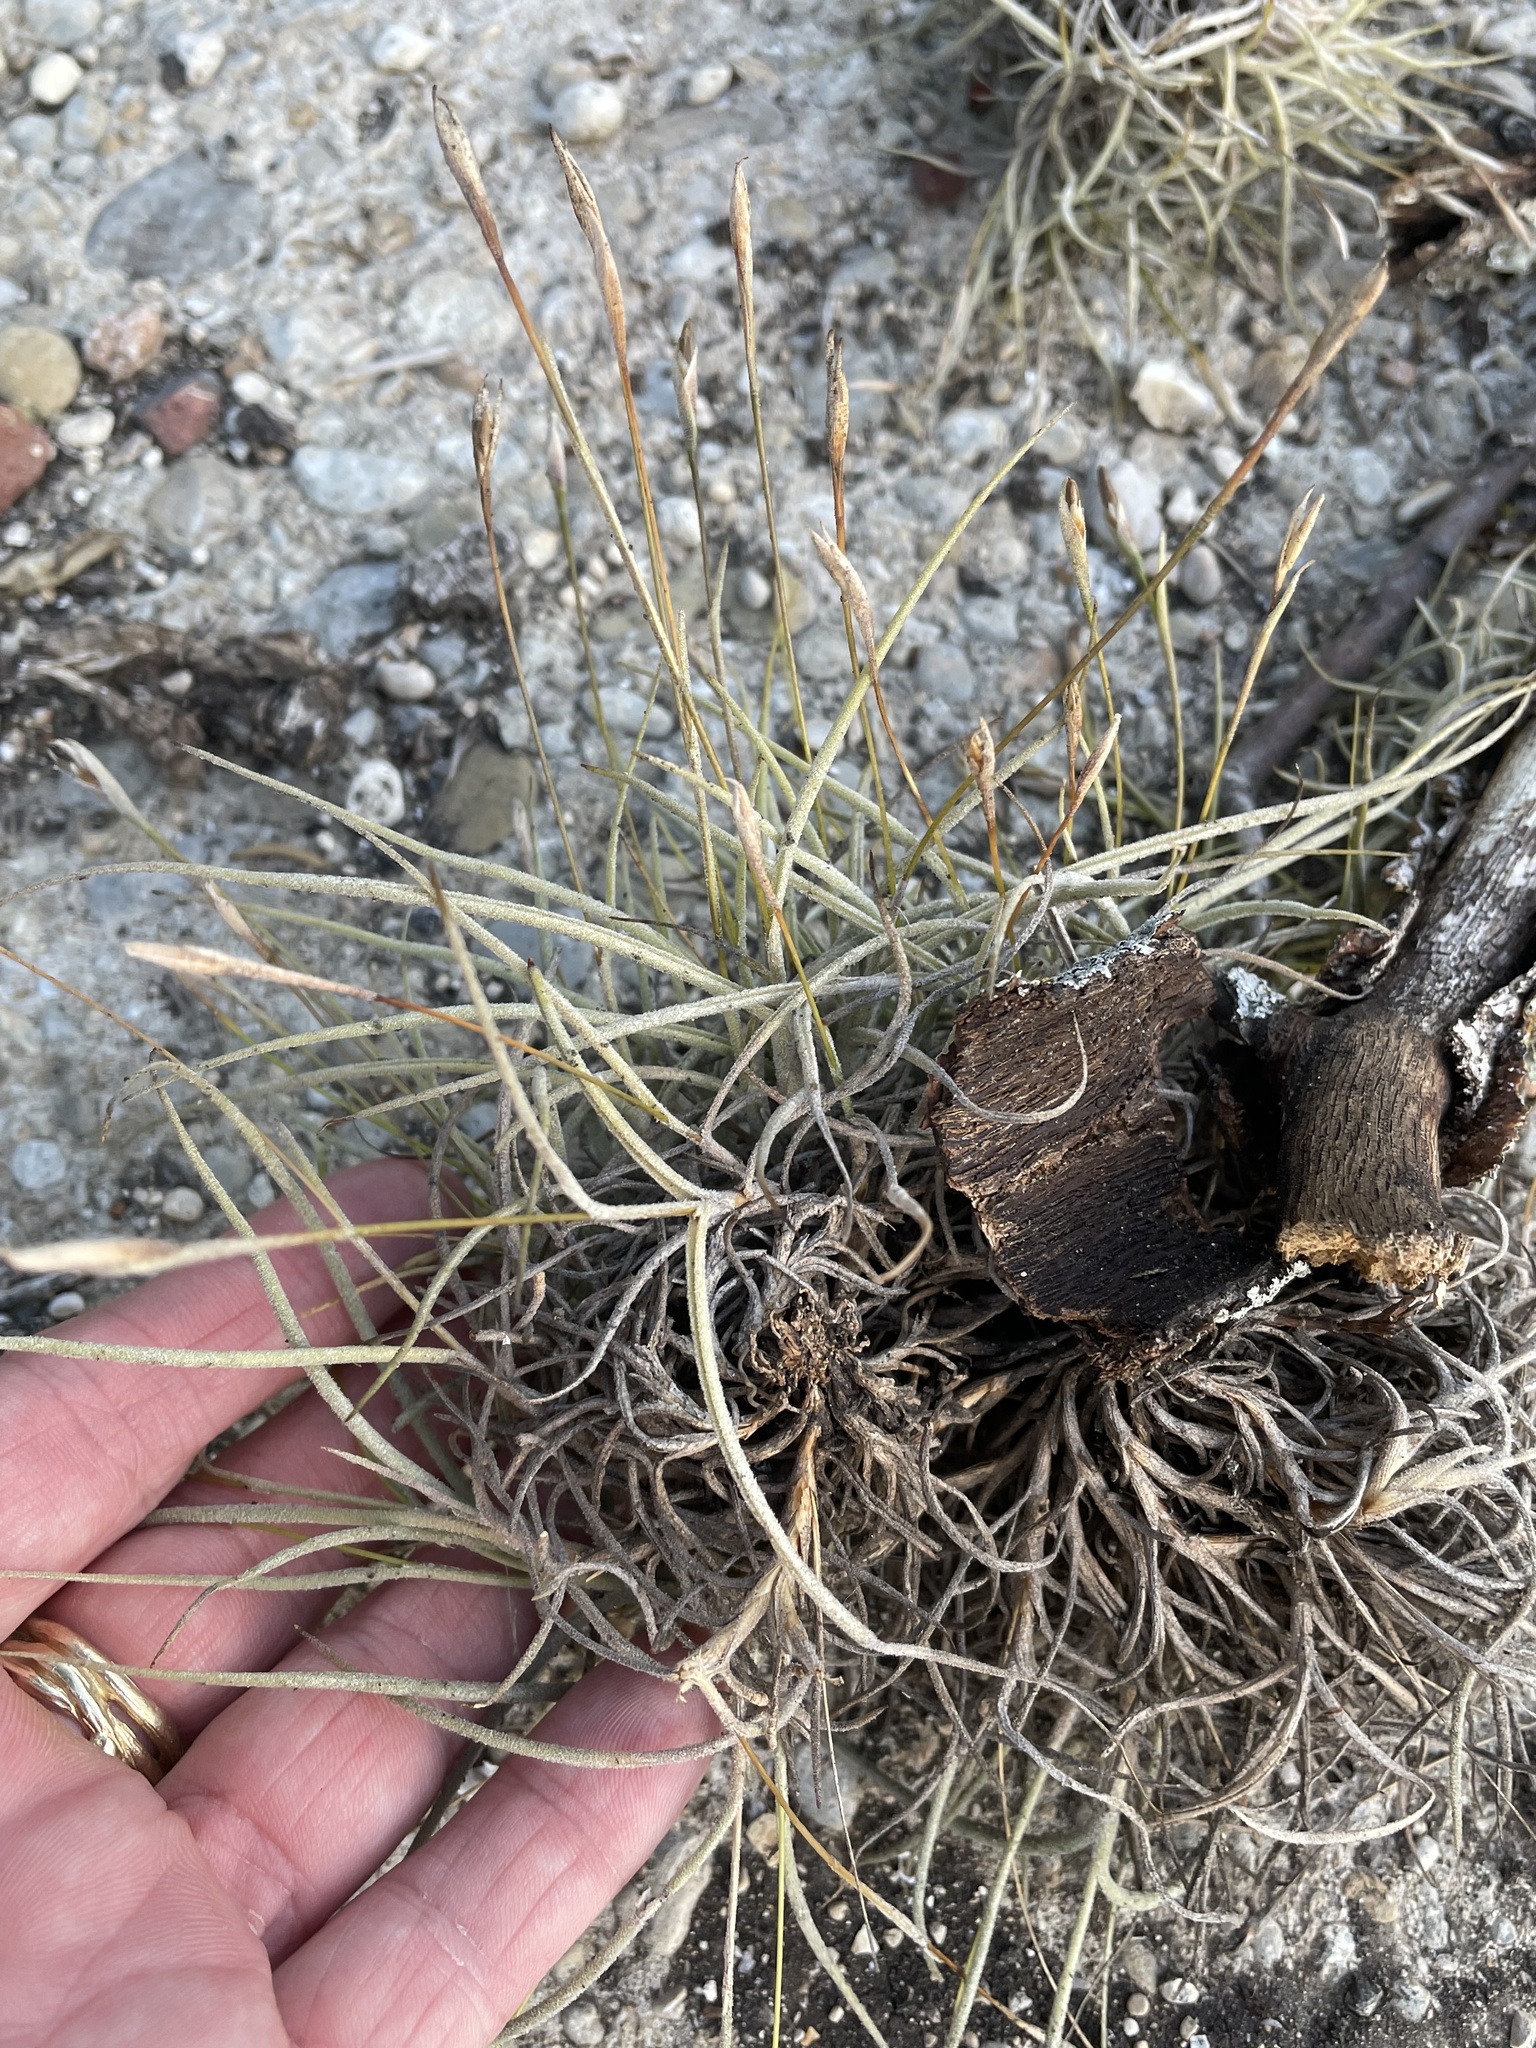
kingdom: Plantae
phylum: Tracheophyta
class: Liliopsida
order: Poales
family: Bromeliaceae
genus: Tillandsia
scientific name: Tillandsia recurvata
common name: Small ballmoss
